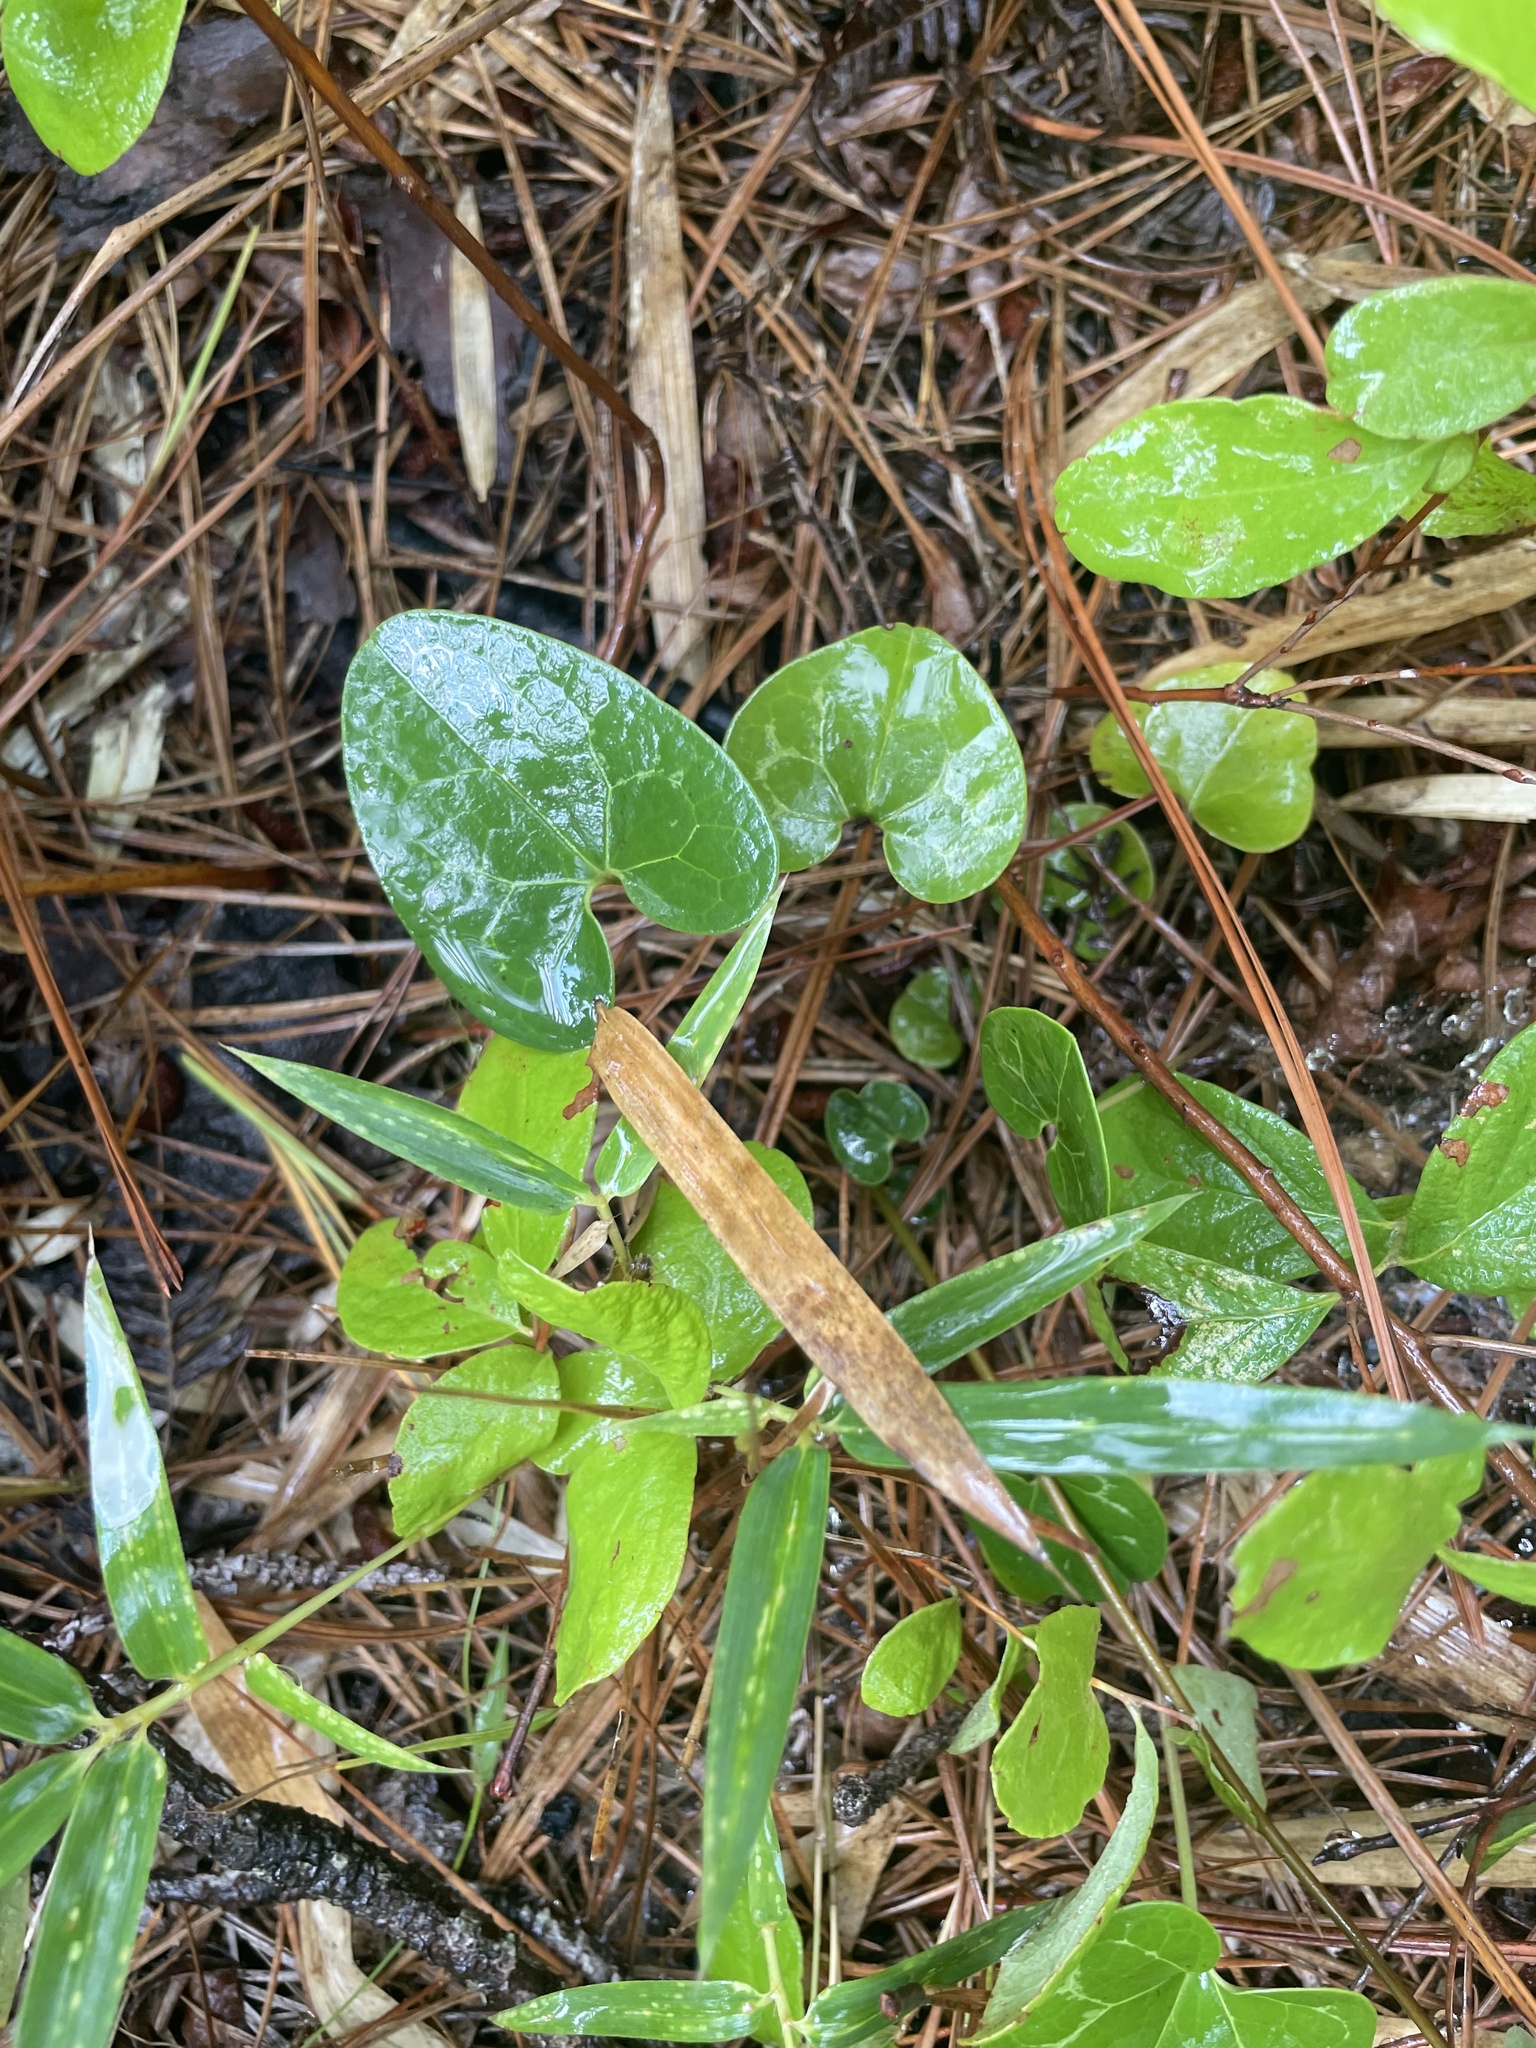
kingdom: Plantae
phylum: Tracheophyta
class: Magnoliopsida
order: Piperales
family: Aristolochiaceae
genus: Hexastylis
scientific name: Hexastylis sorriei
